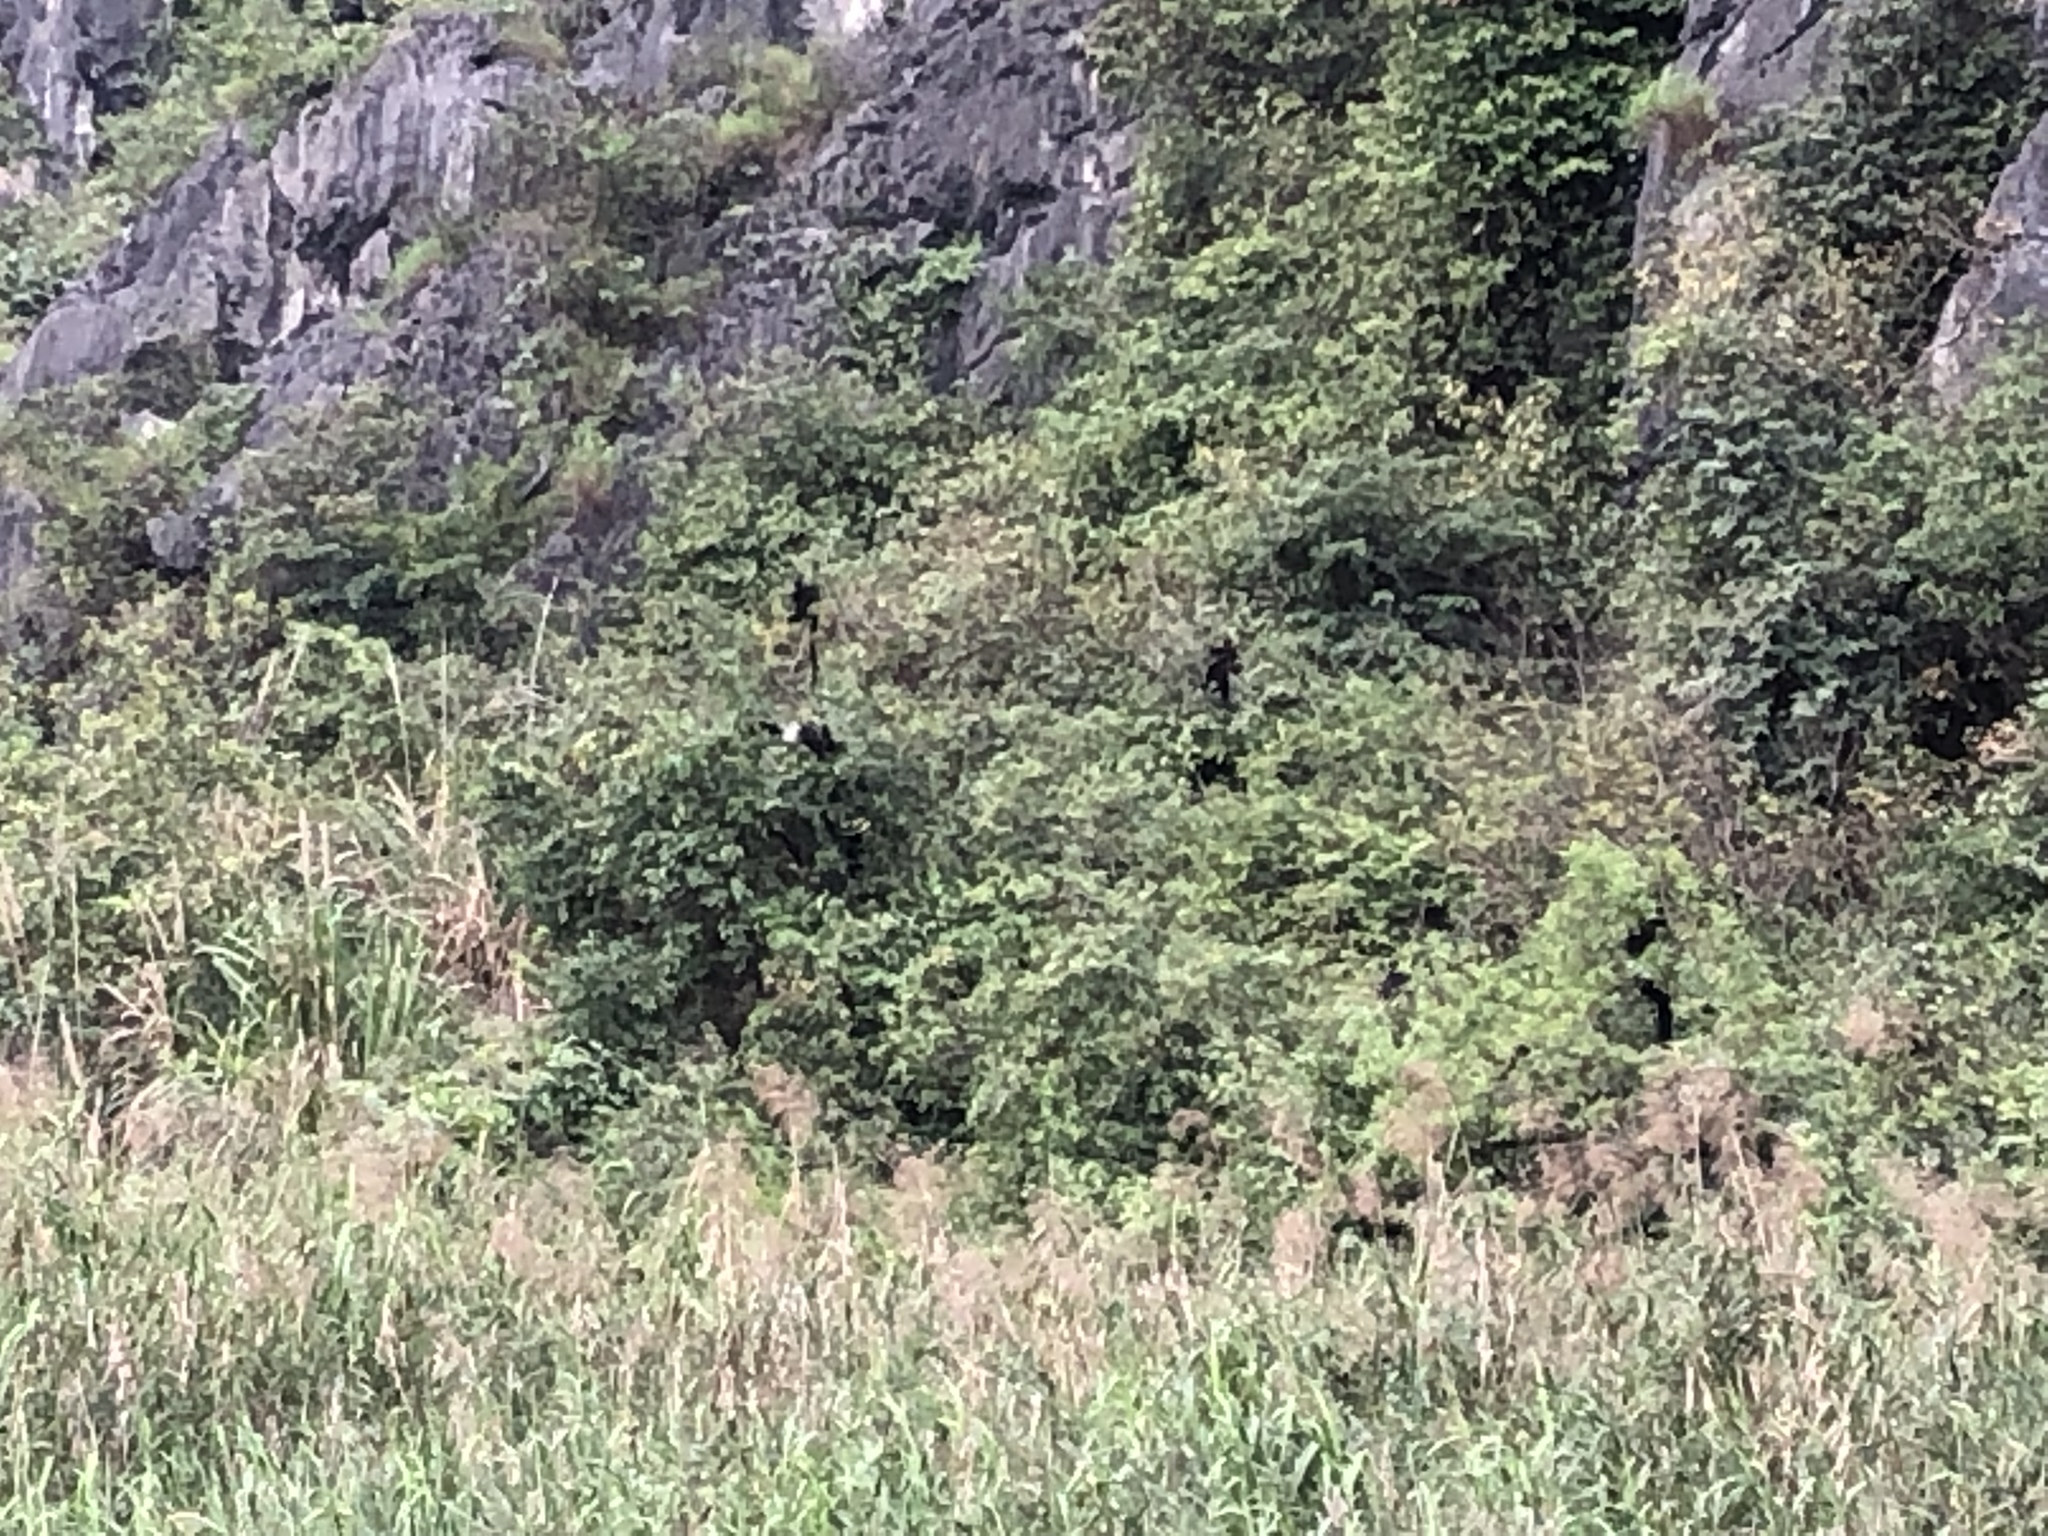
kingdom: Animalia
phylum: Chordata
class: Mammalia
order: Primates
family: Cercopithecidae
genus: Trachypithecus
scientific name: Trachypithecus delacouri
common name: Delacour's langur
